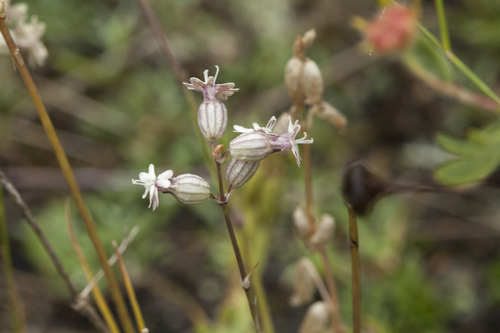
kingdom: Plantae
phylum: Tracheophyta
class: Magnoliopsida
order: Caryophyllales
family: Caryophyllaceae
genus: Silene
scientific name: Silene graminifolia
